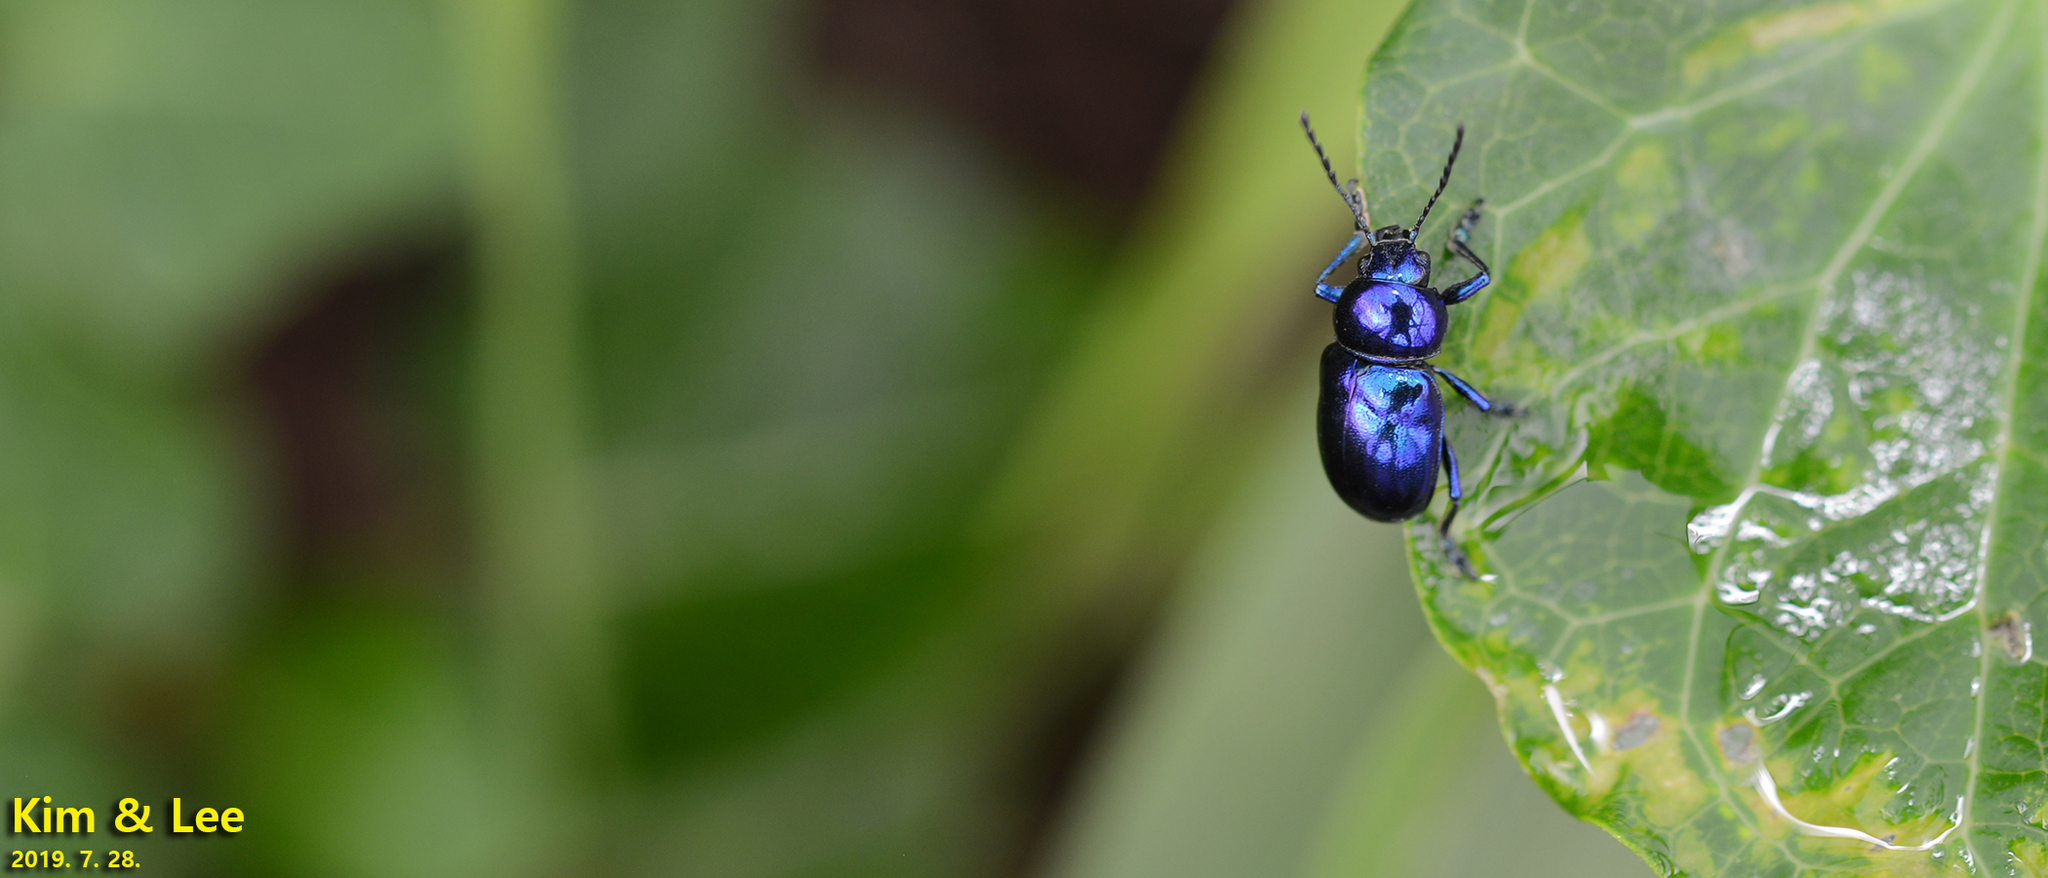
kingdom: Animalia
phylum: Arthropoda
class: Insecta
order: Coleoptera
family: Chrysomelidae
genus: Chrysochus
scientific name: Chrysochus chinensis
